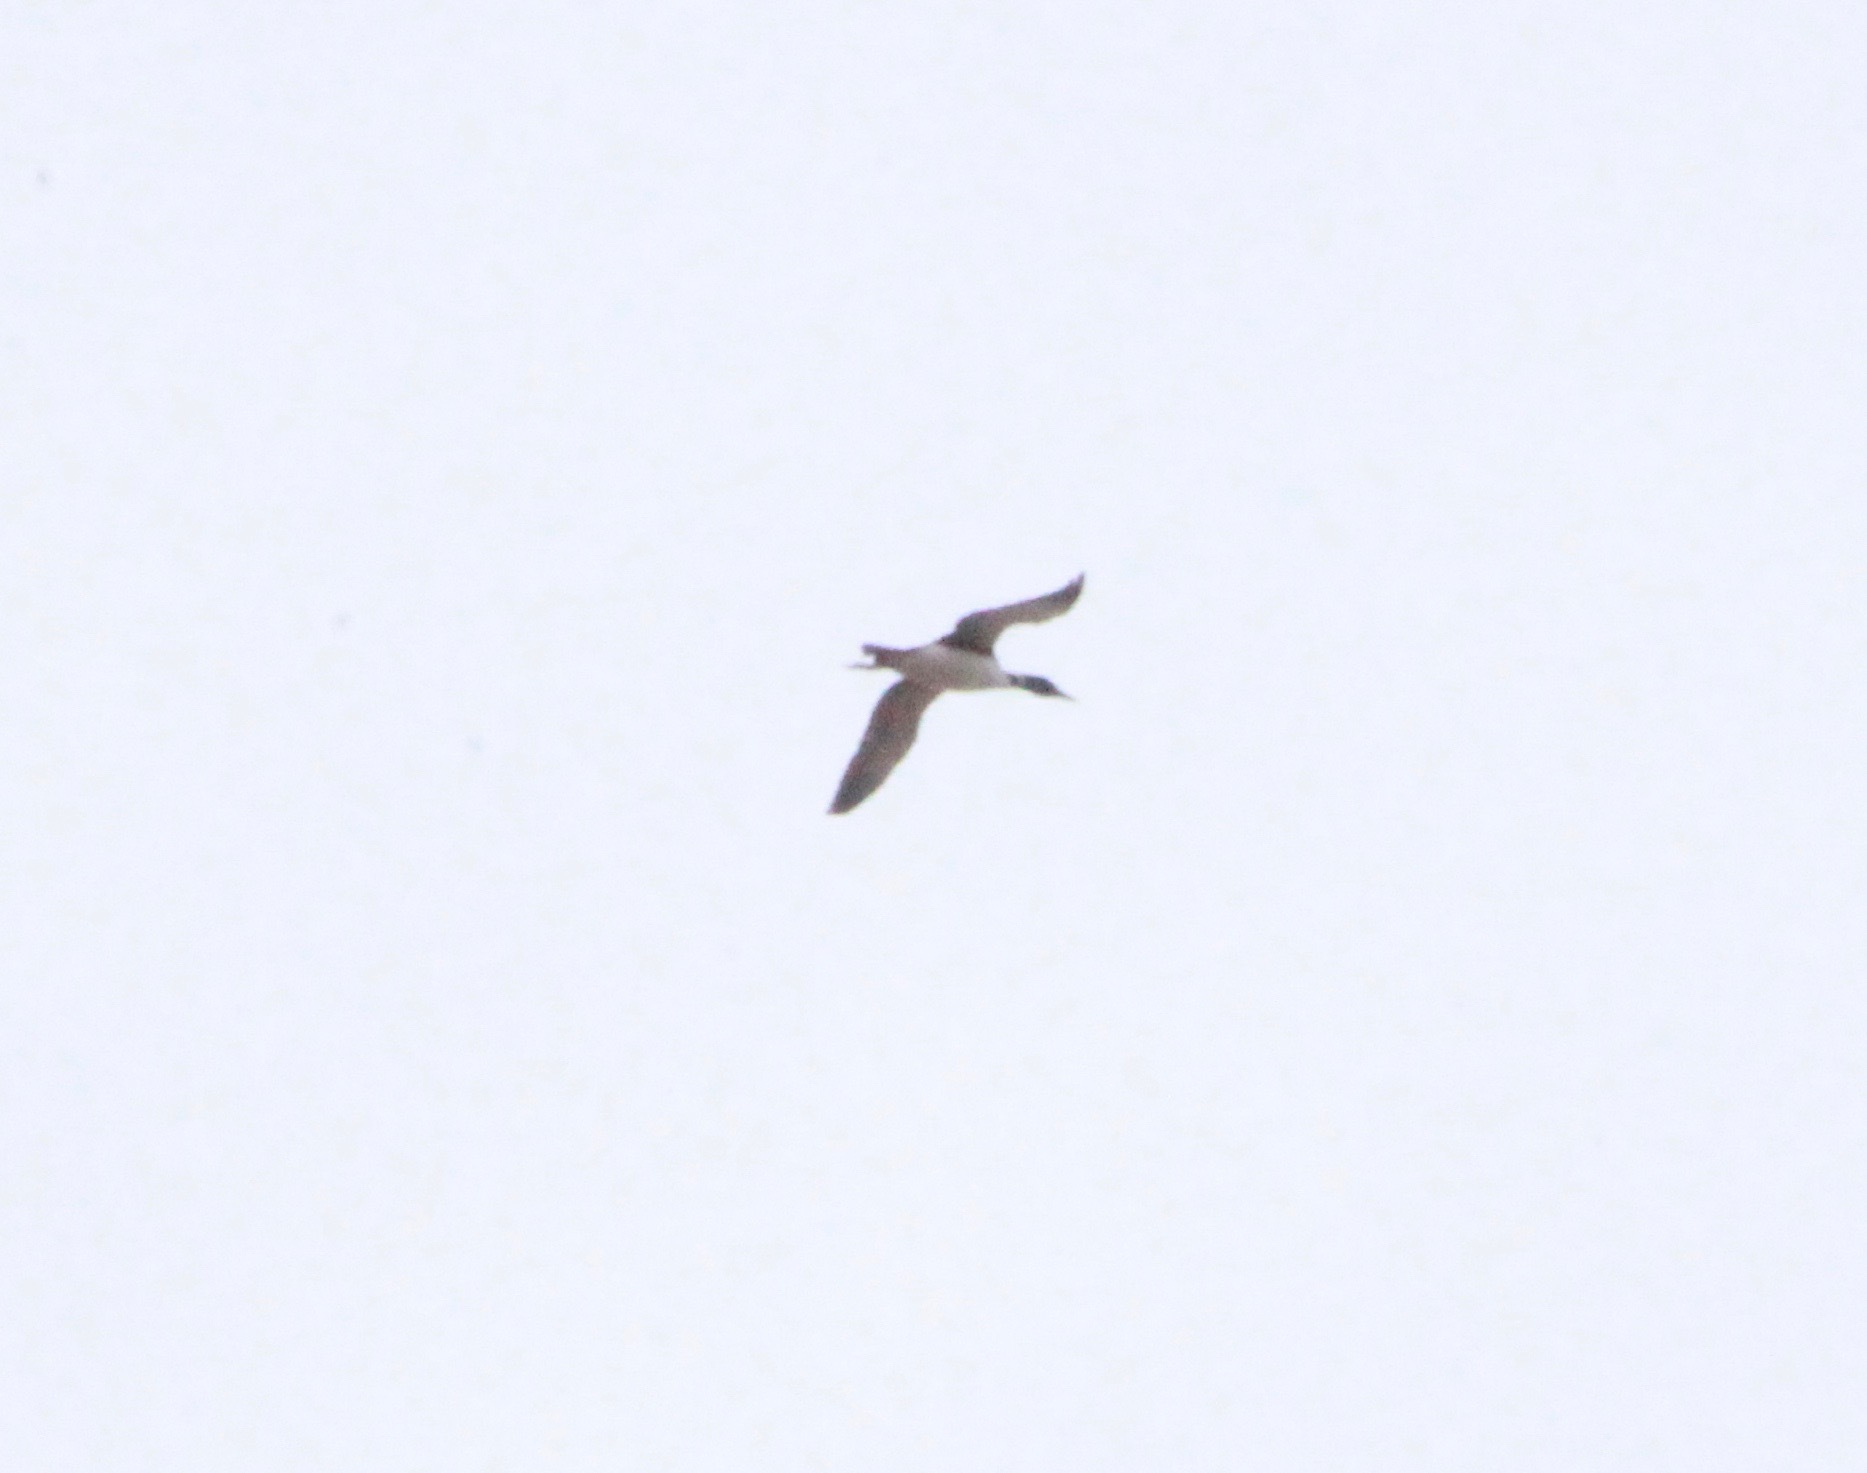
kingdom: Animalia
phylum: Chordata
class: Aves
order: Gaviiformes
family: Gaviidae
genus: Gavia
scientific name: Gavia immer
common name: Common loon
